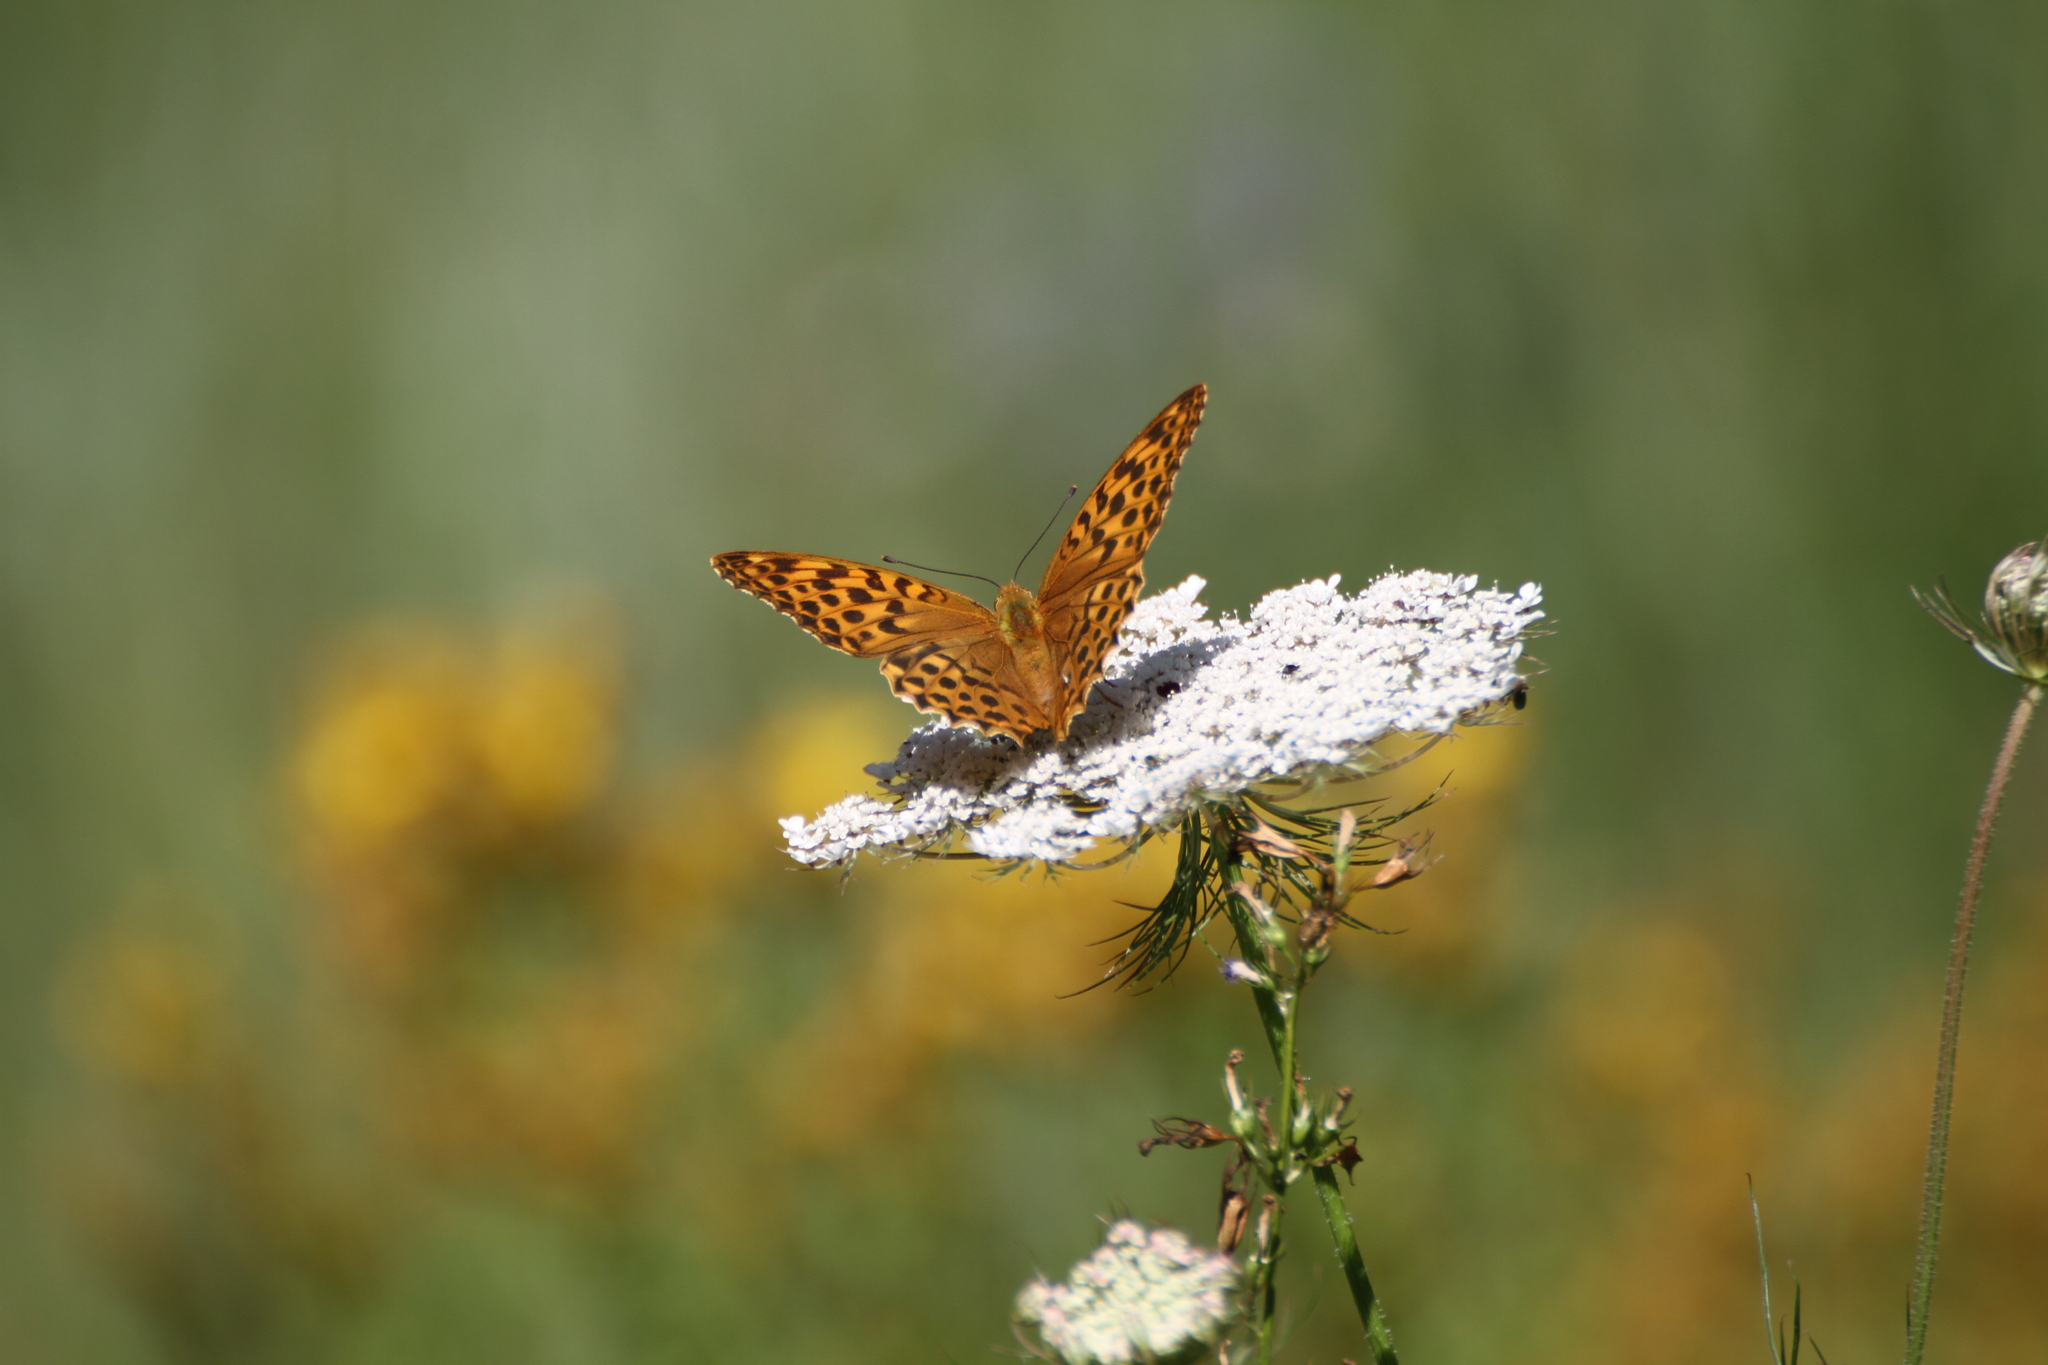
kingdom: Animalia
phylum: Arthropoda
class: Insecta
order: Lepidoptera
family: Nymphalidae
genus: Argynnis
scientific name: Argynnis paphia
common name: Silver-washed fritillary
